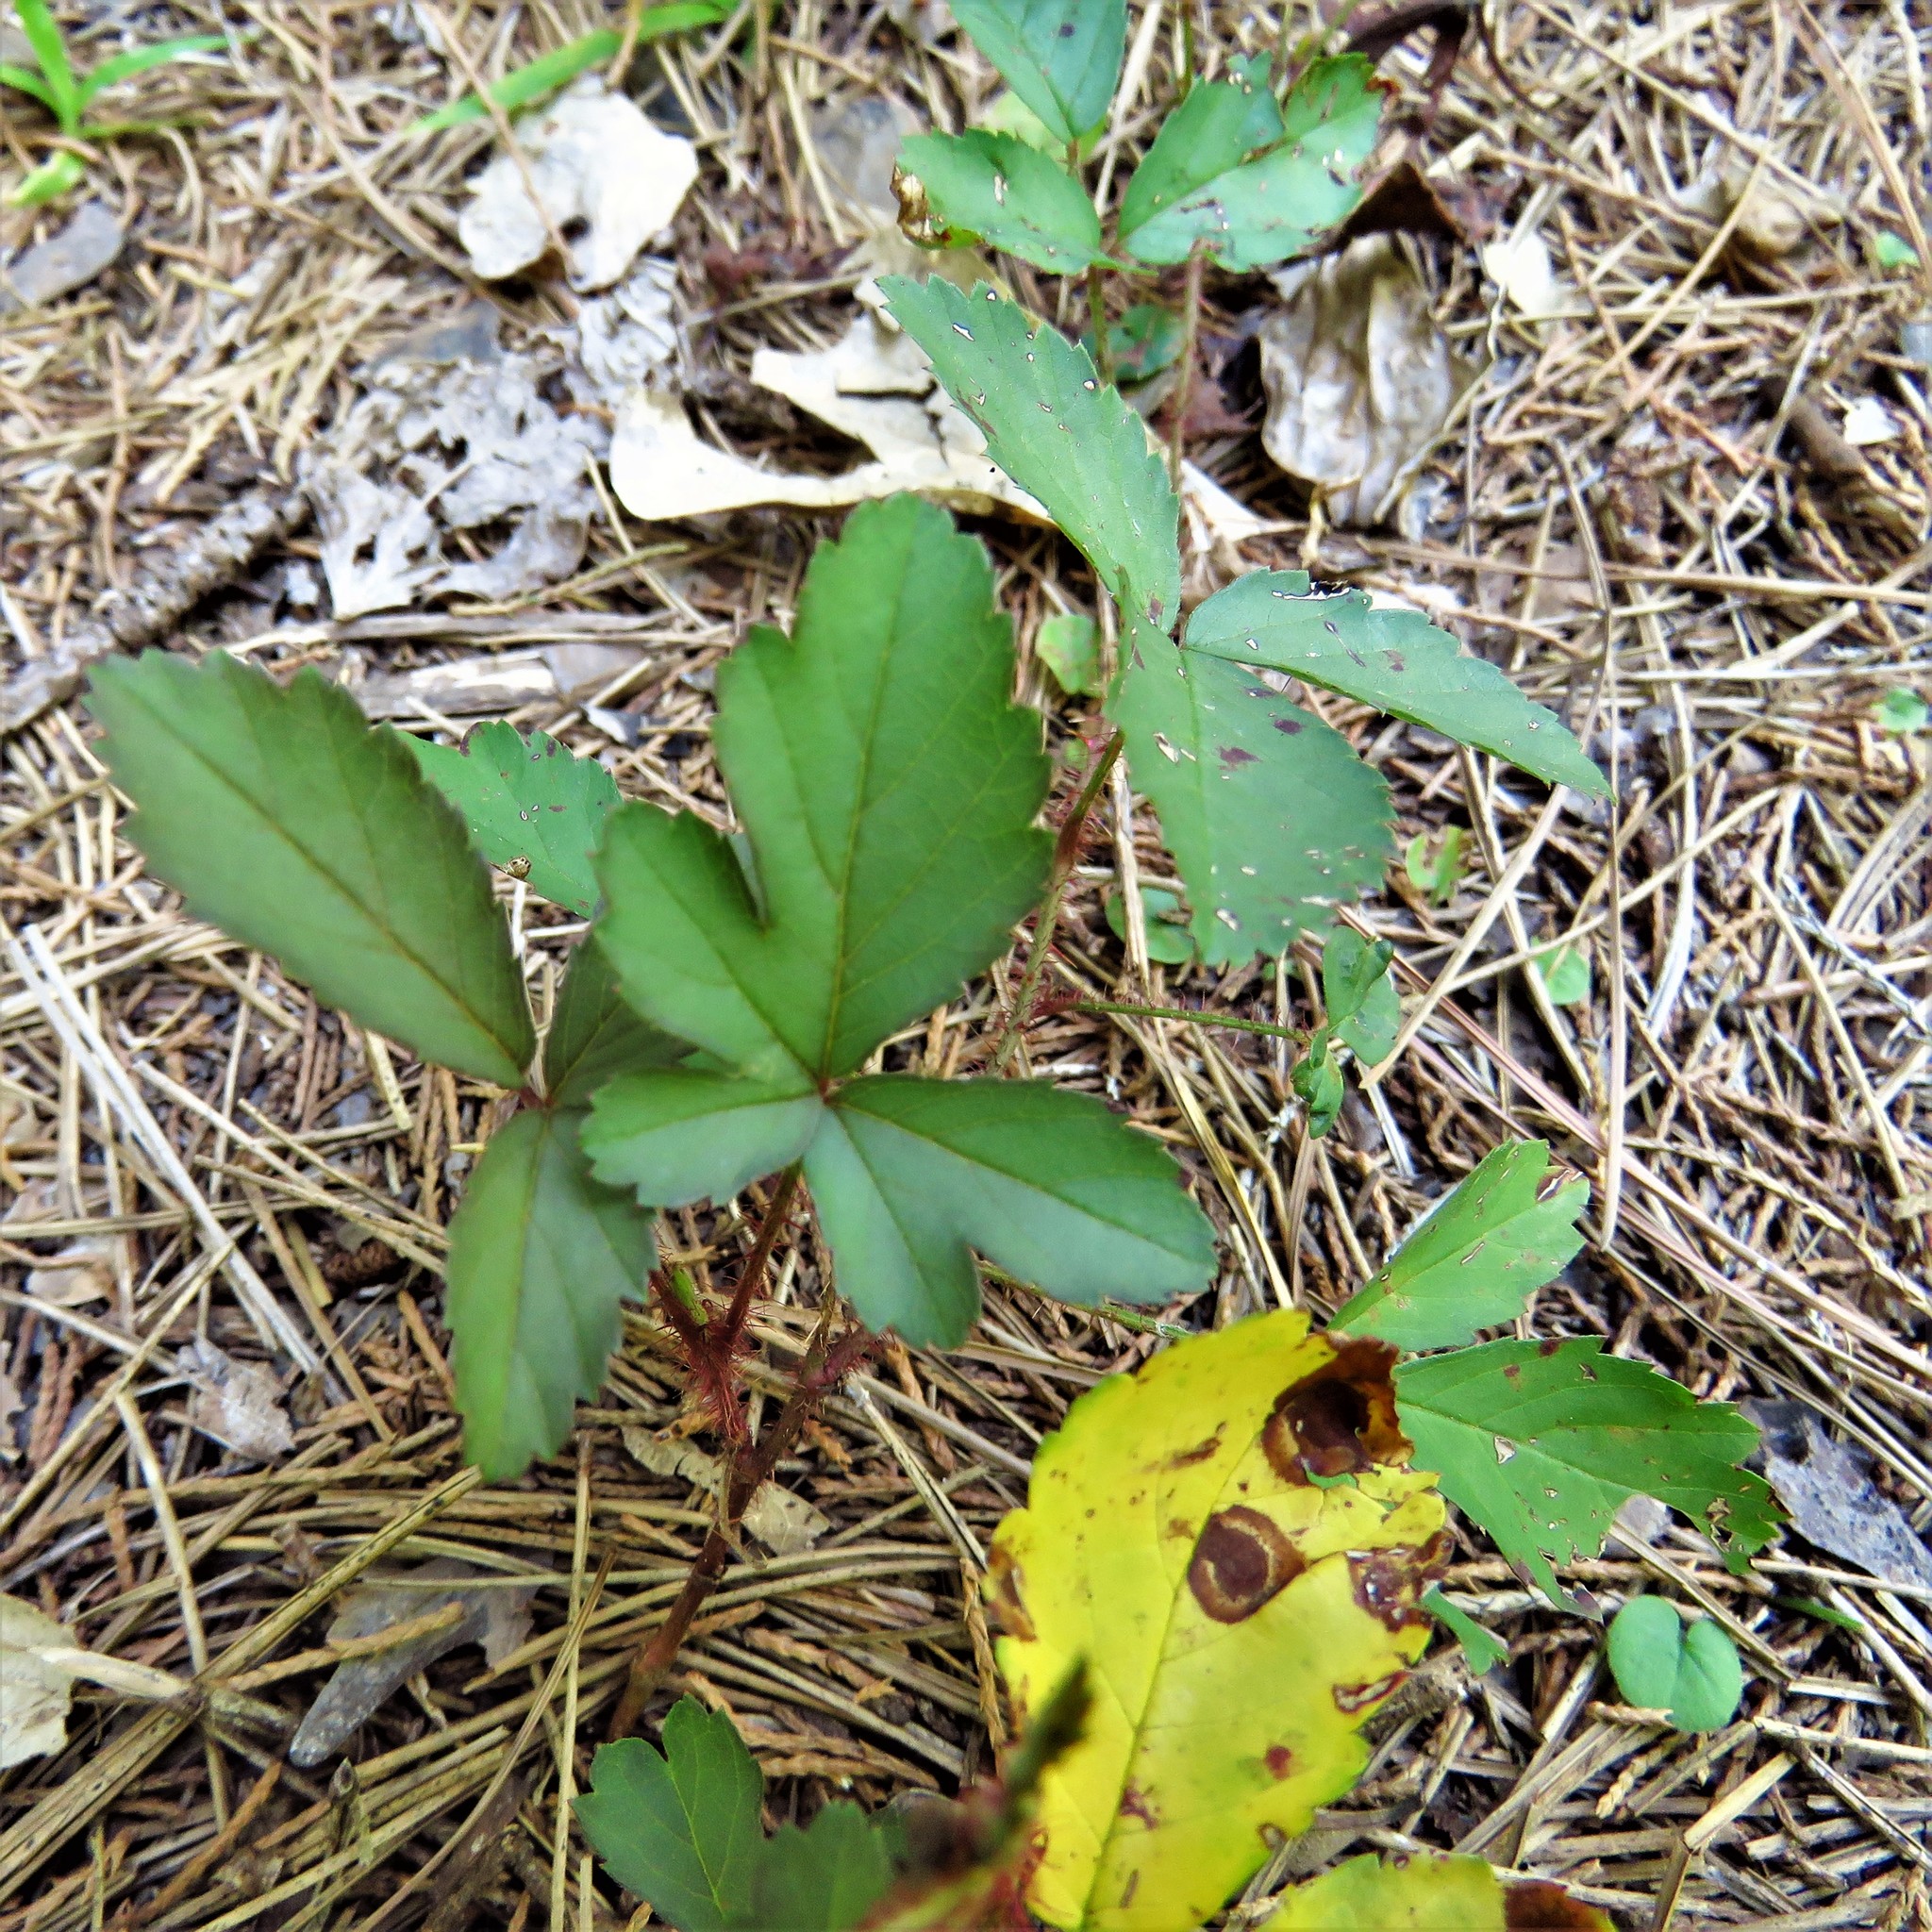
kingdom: Plantae
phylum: Tracheophyta
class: Magnoliopsida
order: Rosales
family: Rosaceae
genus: Rubus
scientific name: Rubus trivialis
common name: Southern dewberry
